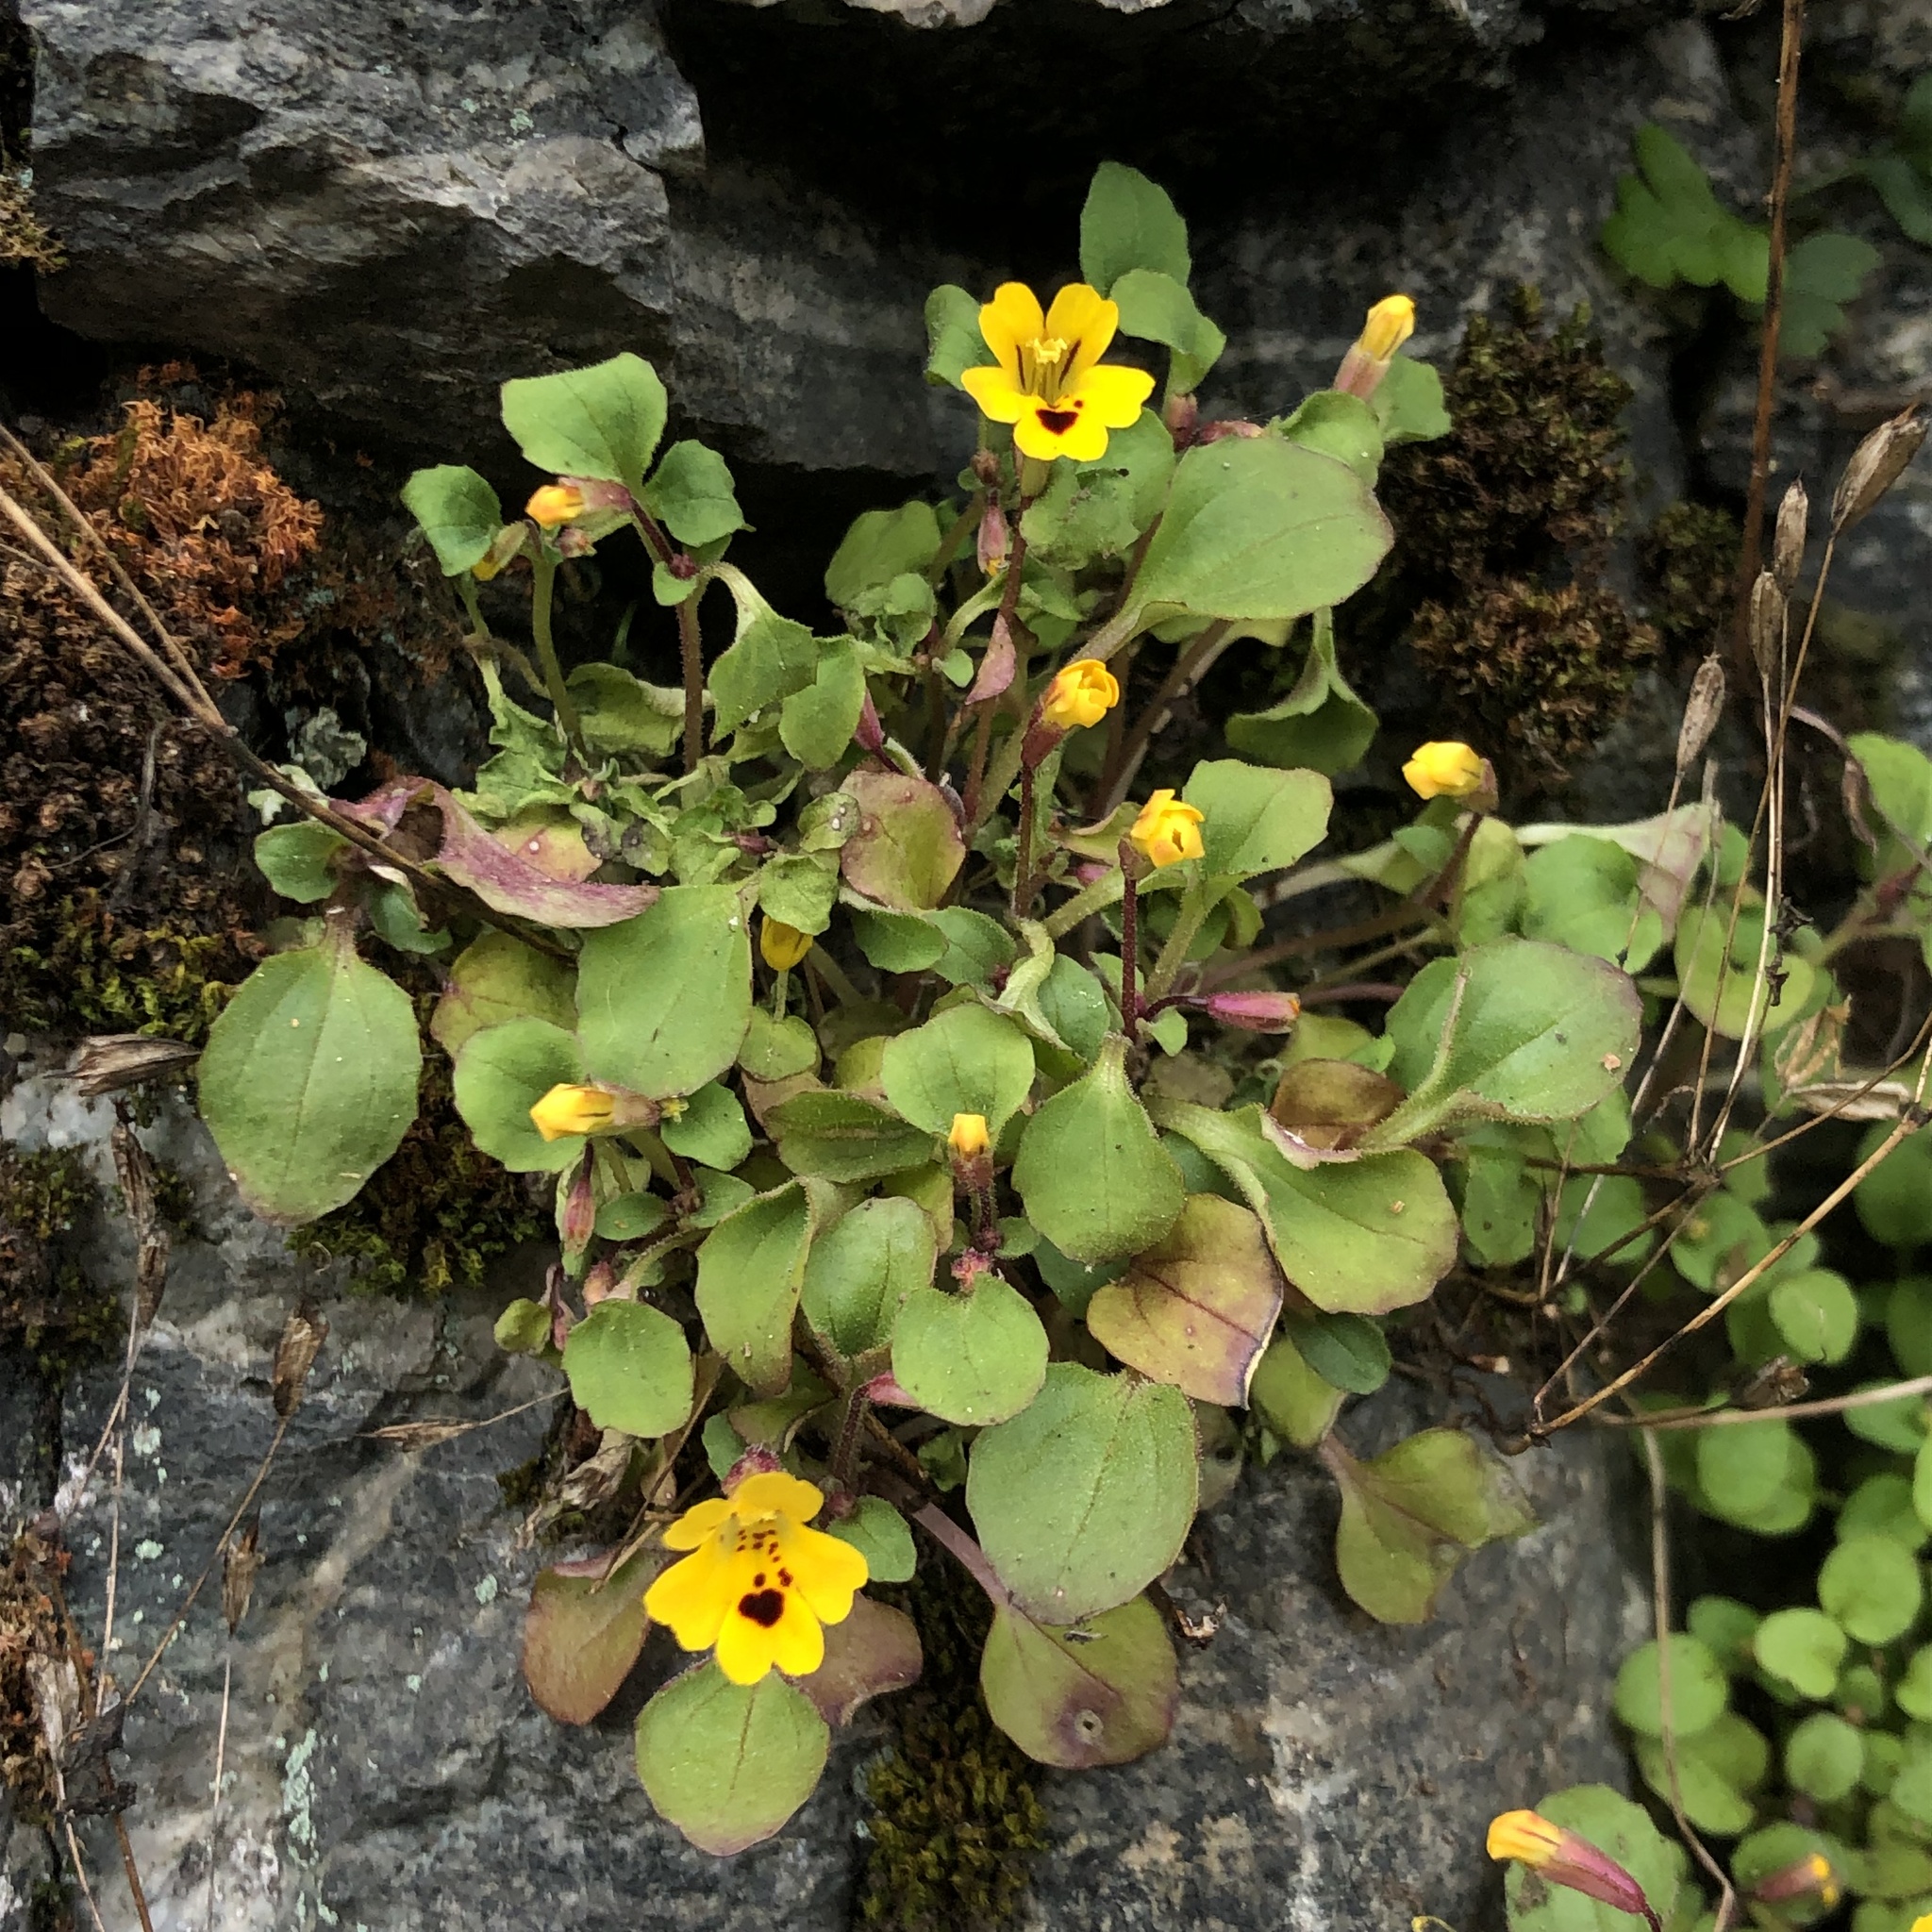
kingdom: Plantae
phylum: Tracheophyta
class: Magnoliopsida
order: Lamiales
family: Phrymaceae
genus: Erythranthe
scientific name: Erythranthe alsinoides
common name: Chickweed monkeyflower
